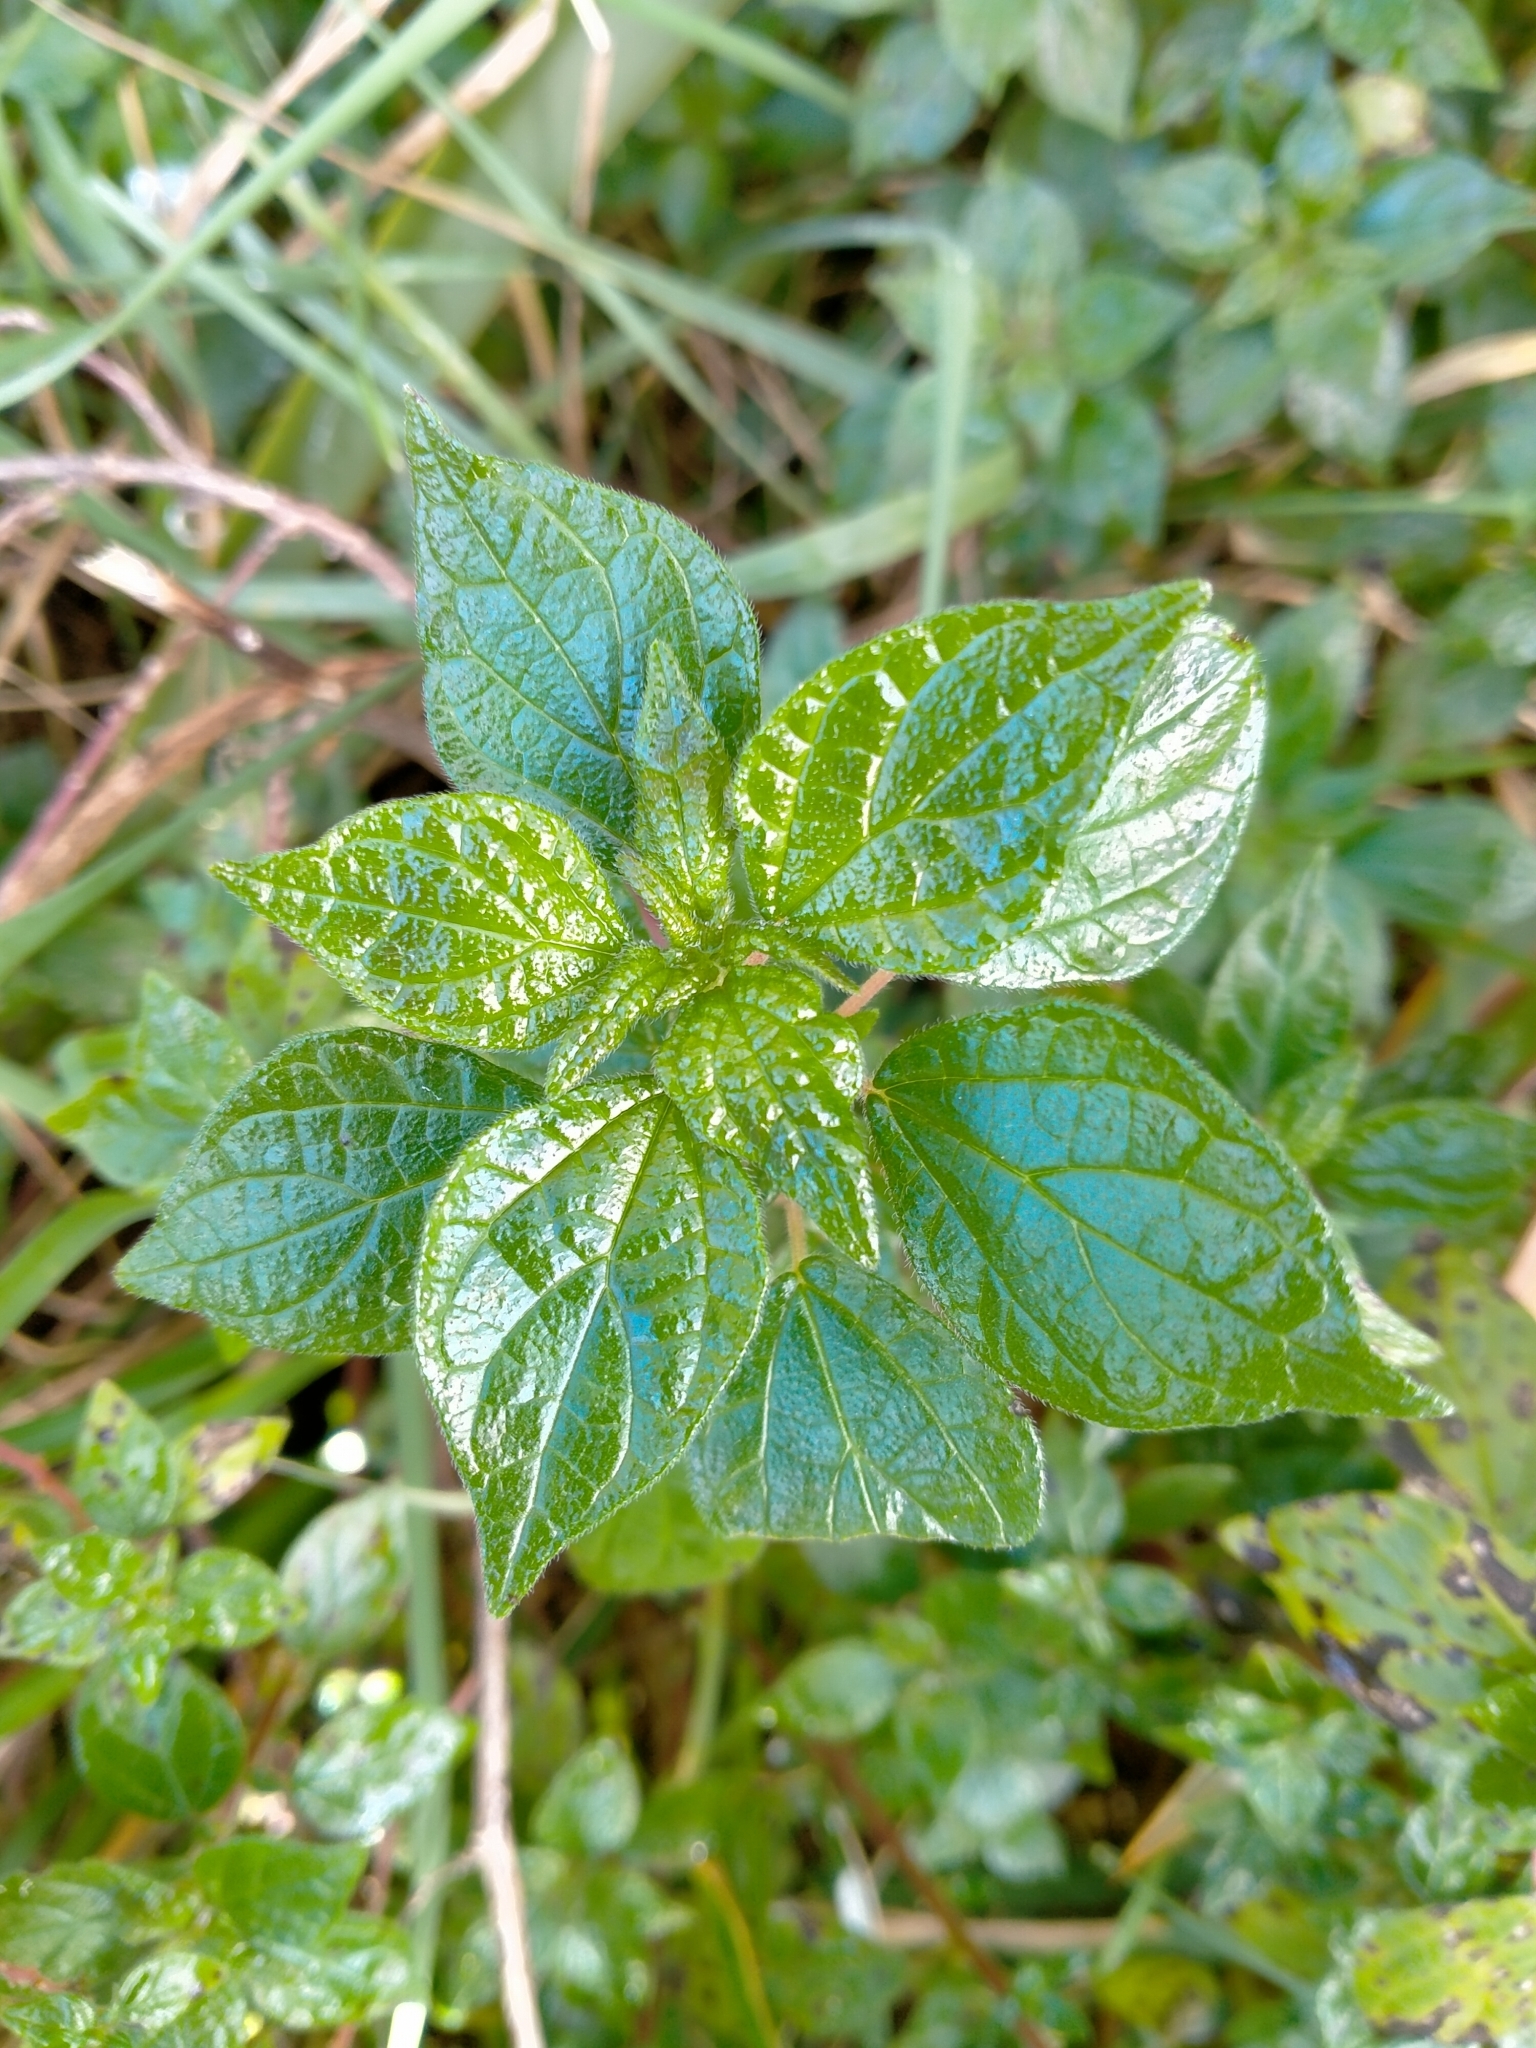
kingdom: Plantae
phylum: Tracheophyta
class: Magnoliopsida
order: Rosales
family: Urticaceae
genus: Parietaria
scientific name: Parietaria judaica
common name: Pellitory-of-the-wall
